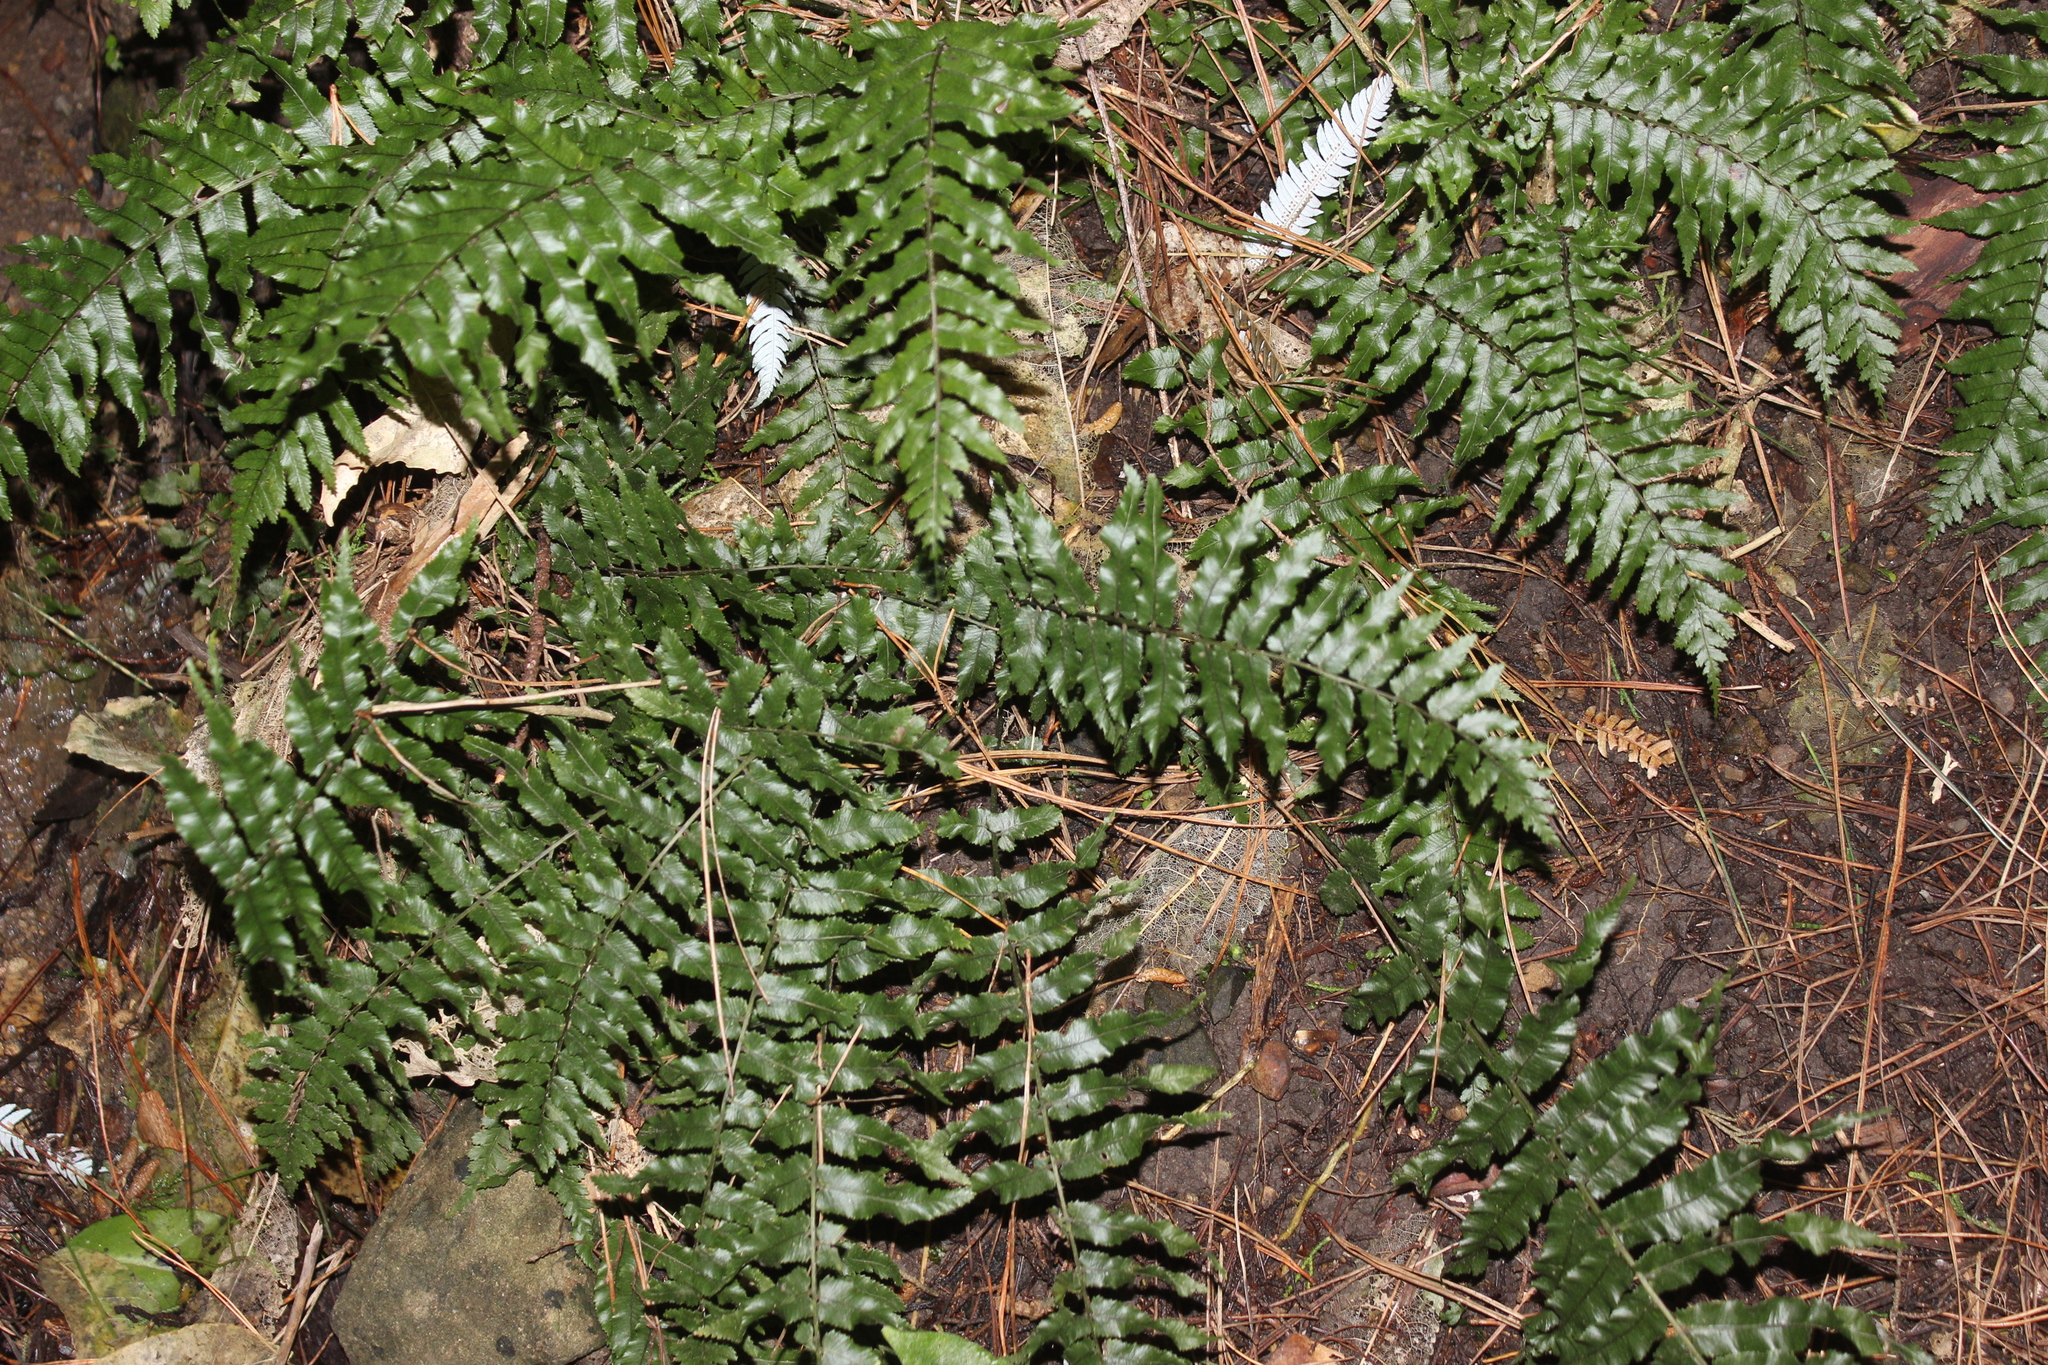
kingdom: Plantae
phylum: Tracheophyta
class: Polypodiopsida
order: Polypodiales
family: Blechnaceae
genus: Icarus
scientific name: Icarus filiformis
